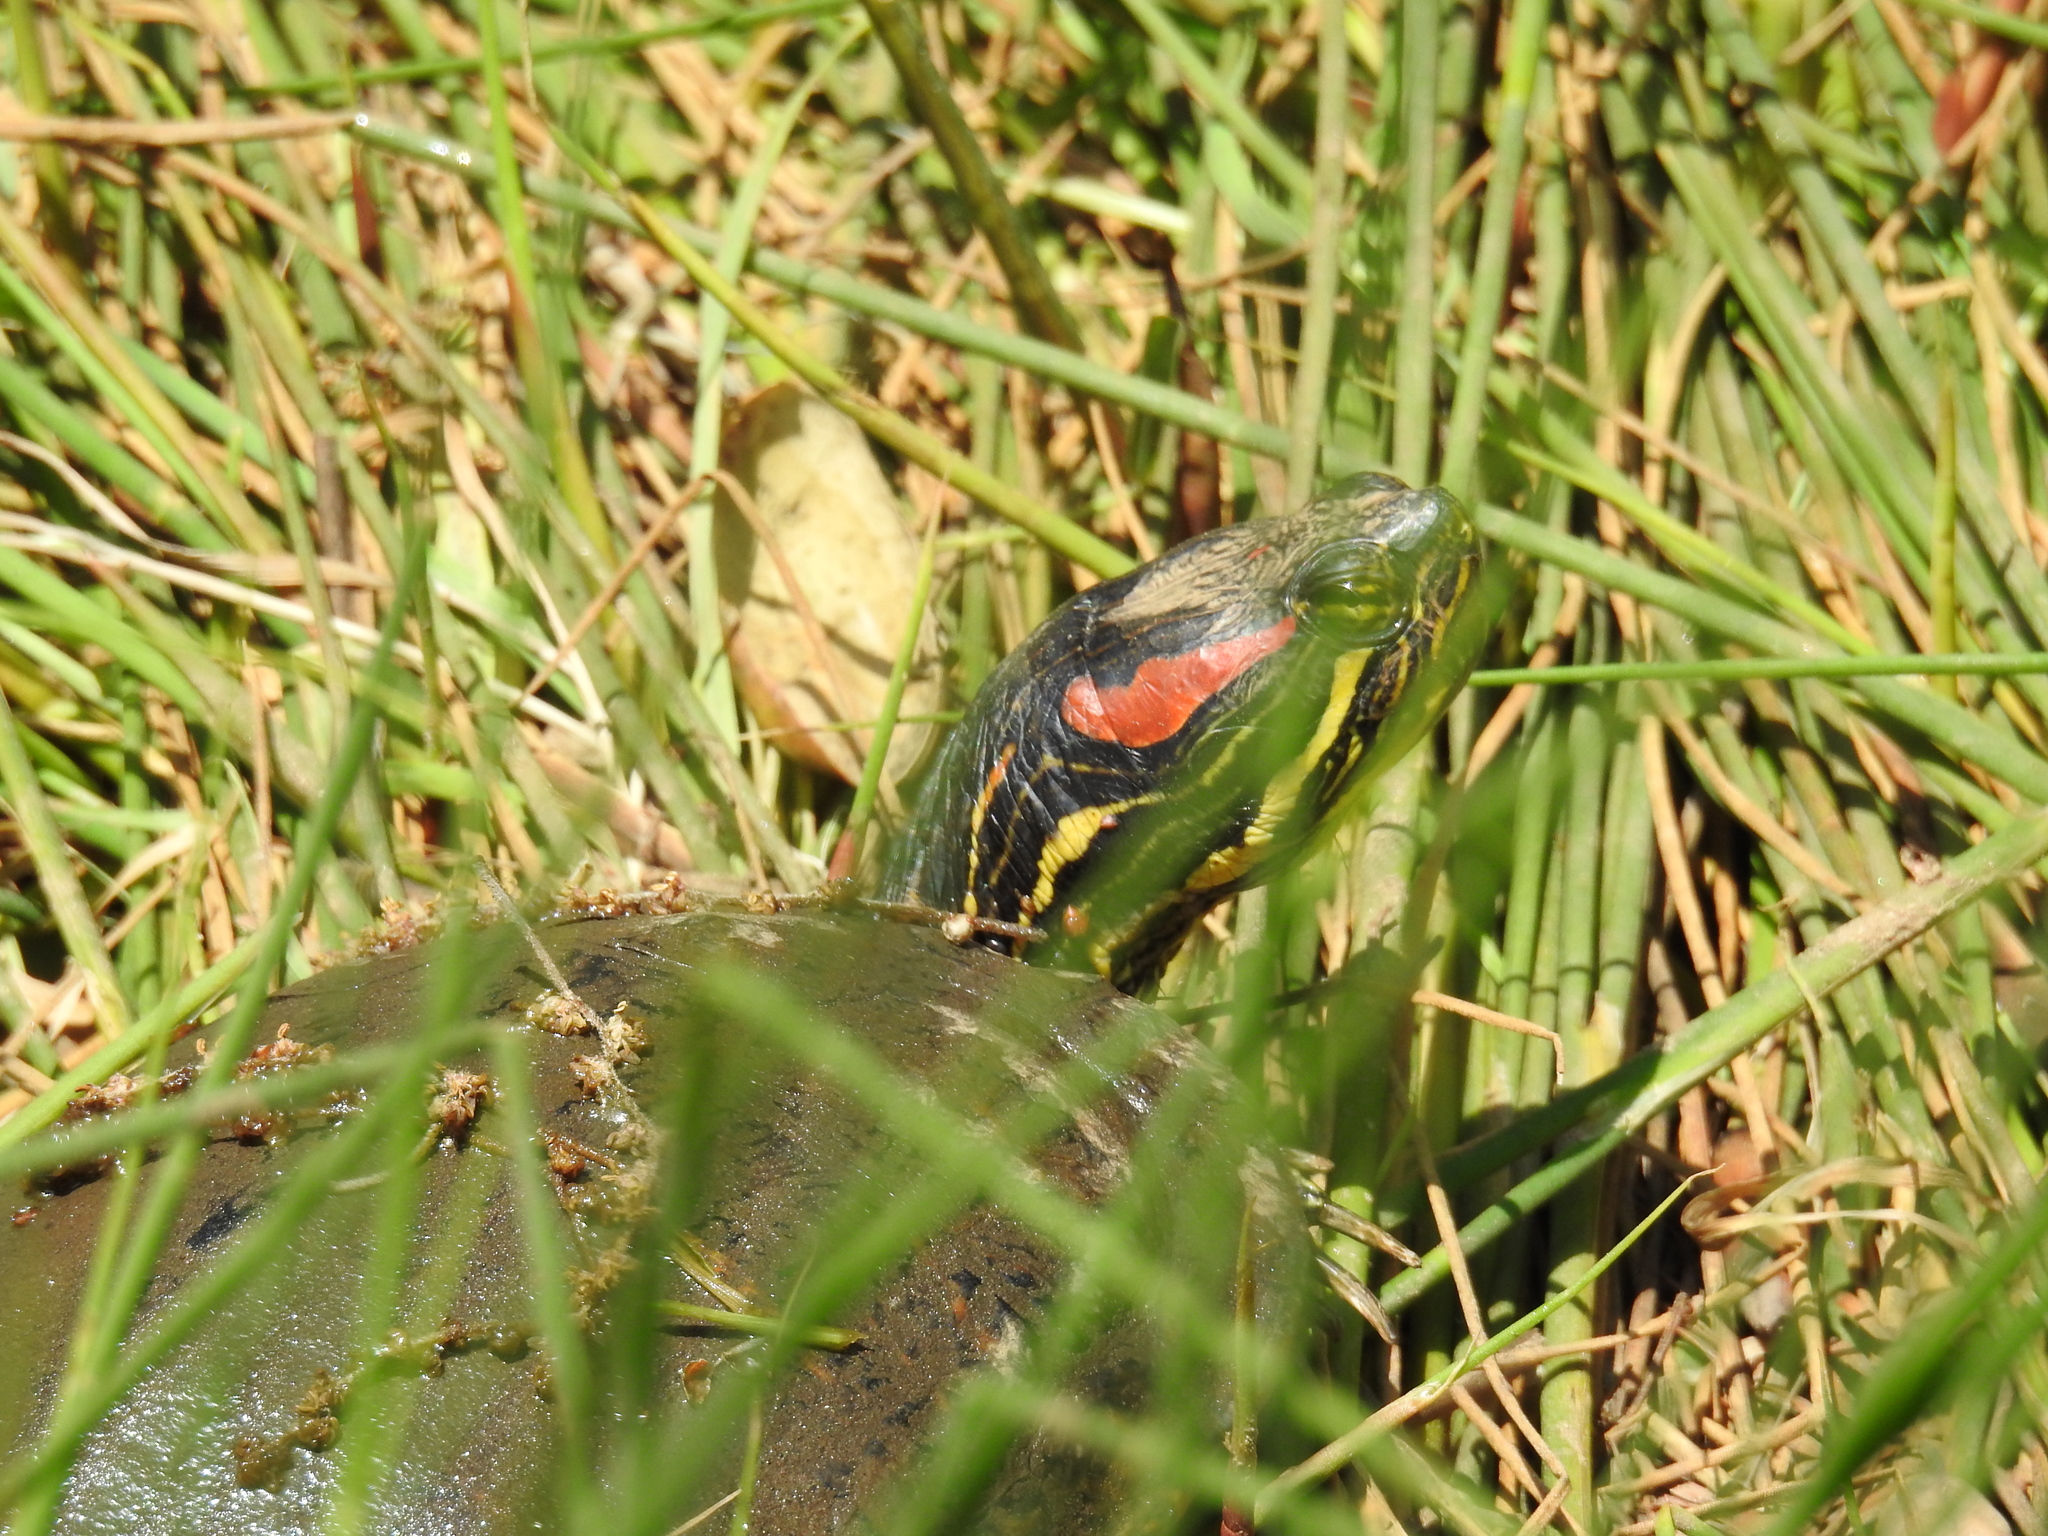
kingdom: Animalia
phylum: Chordata
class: Testudines
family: Emydidae
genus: Trachemys
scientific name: Trachemys scripta
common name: Slider
